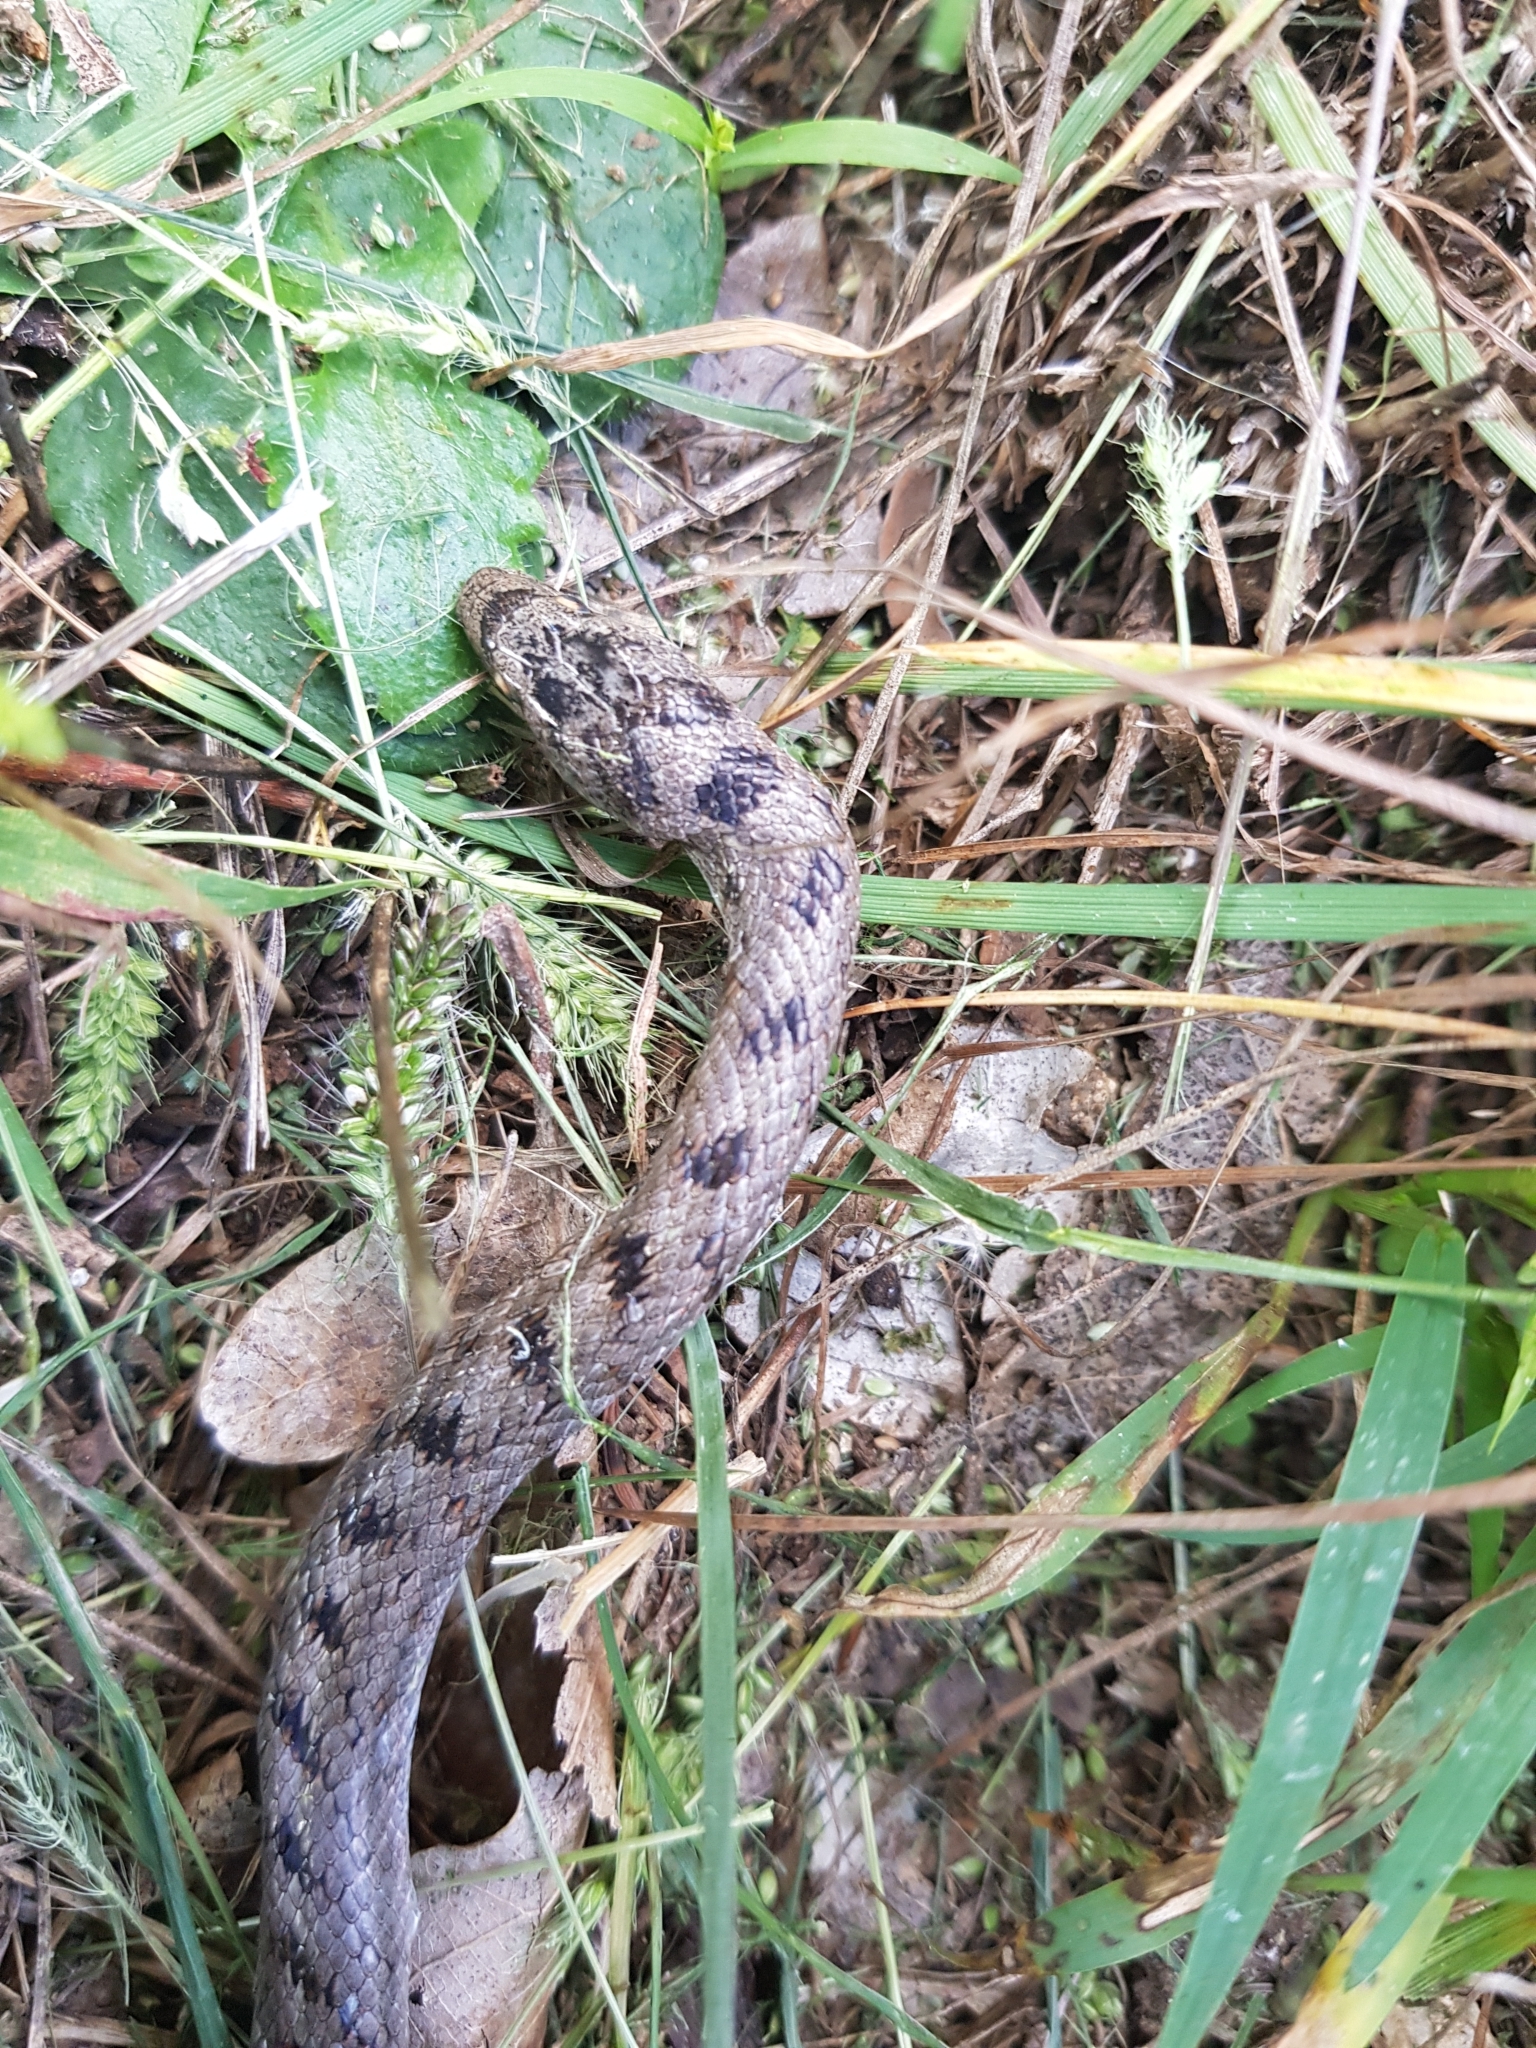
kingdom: Animalia
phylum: Chordata
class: Squamata
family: Colubridae
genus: Coronella
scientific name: Coronella girondica
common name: Southern smooth snake
